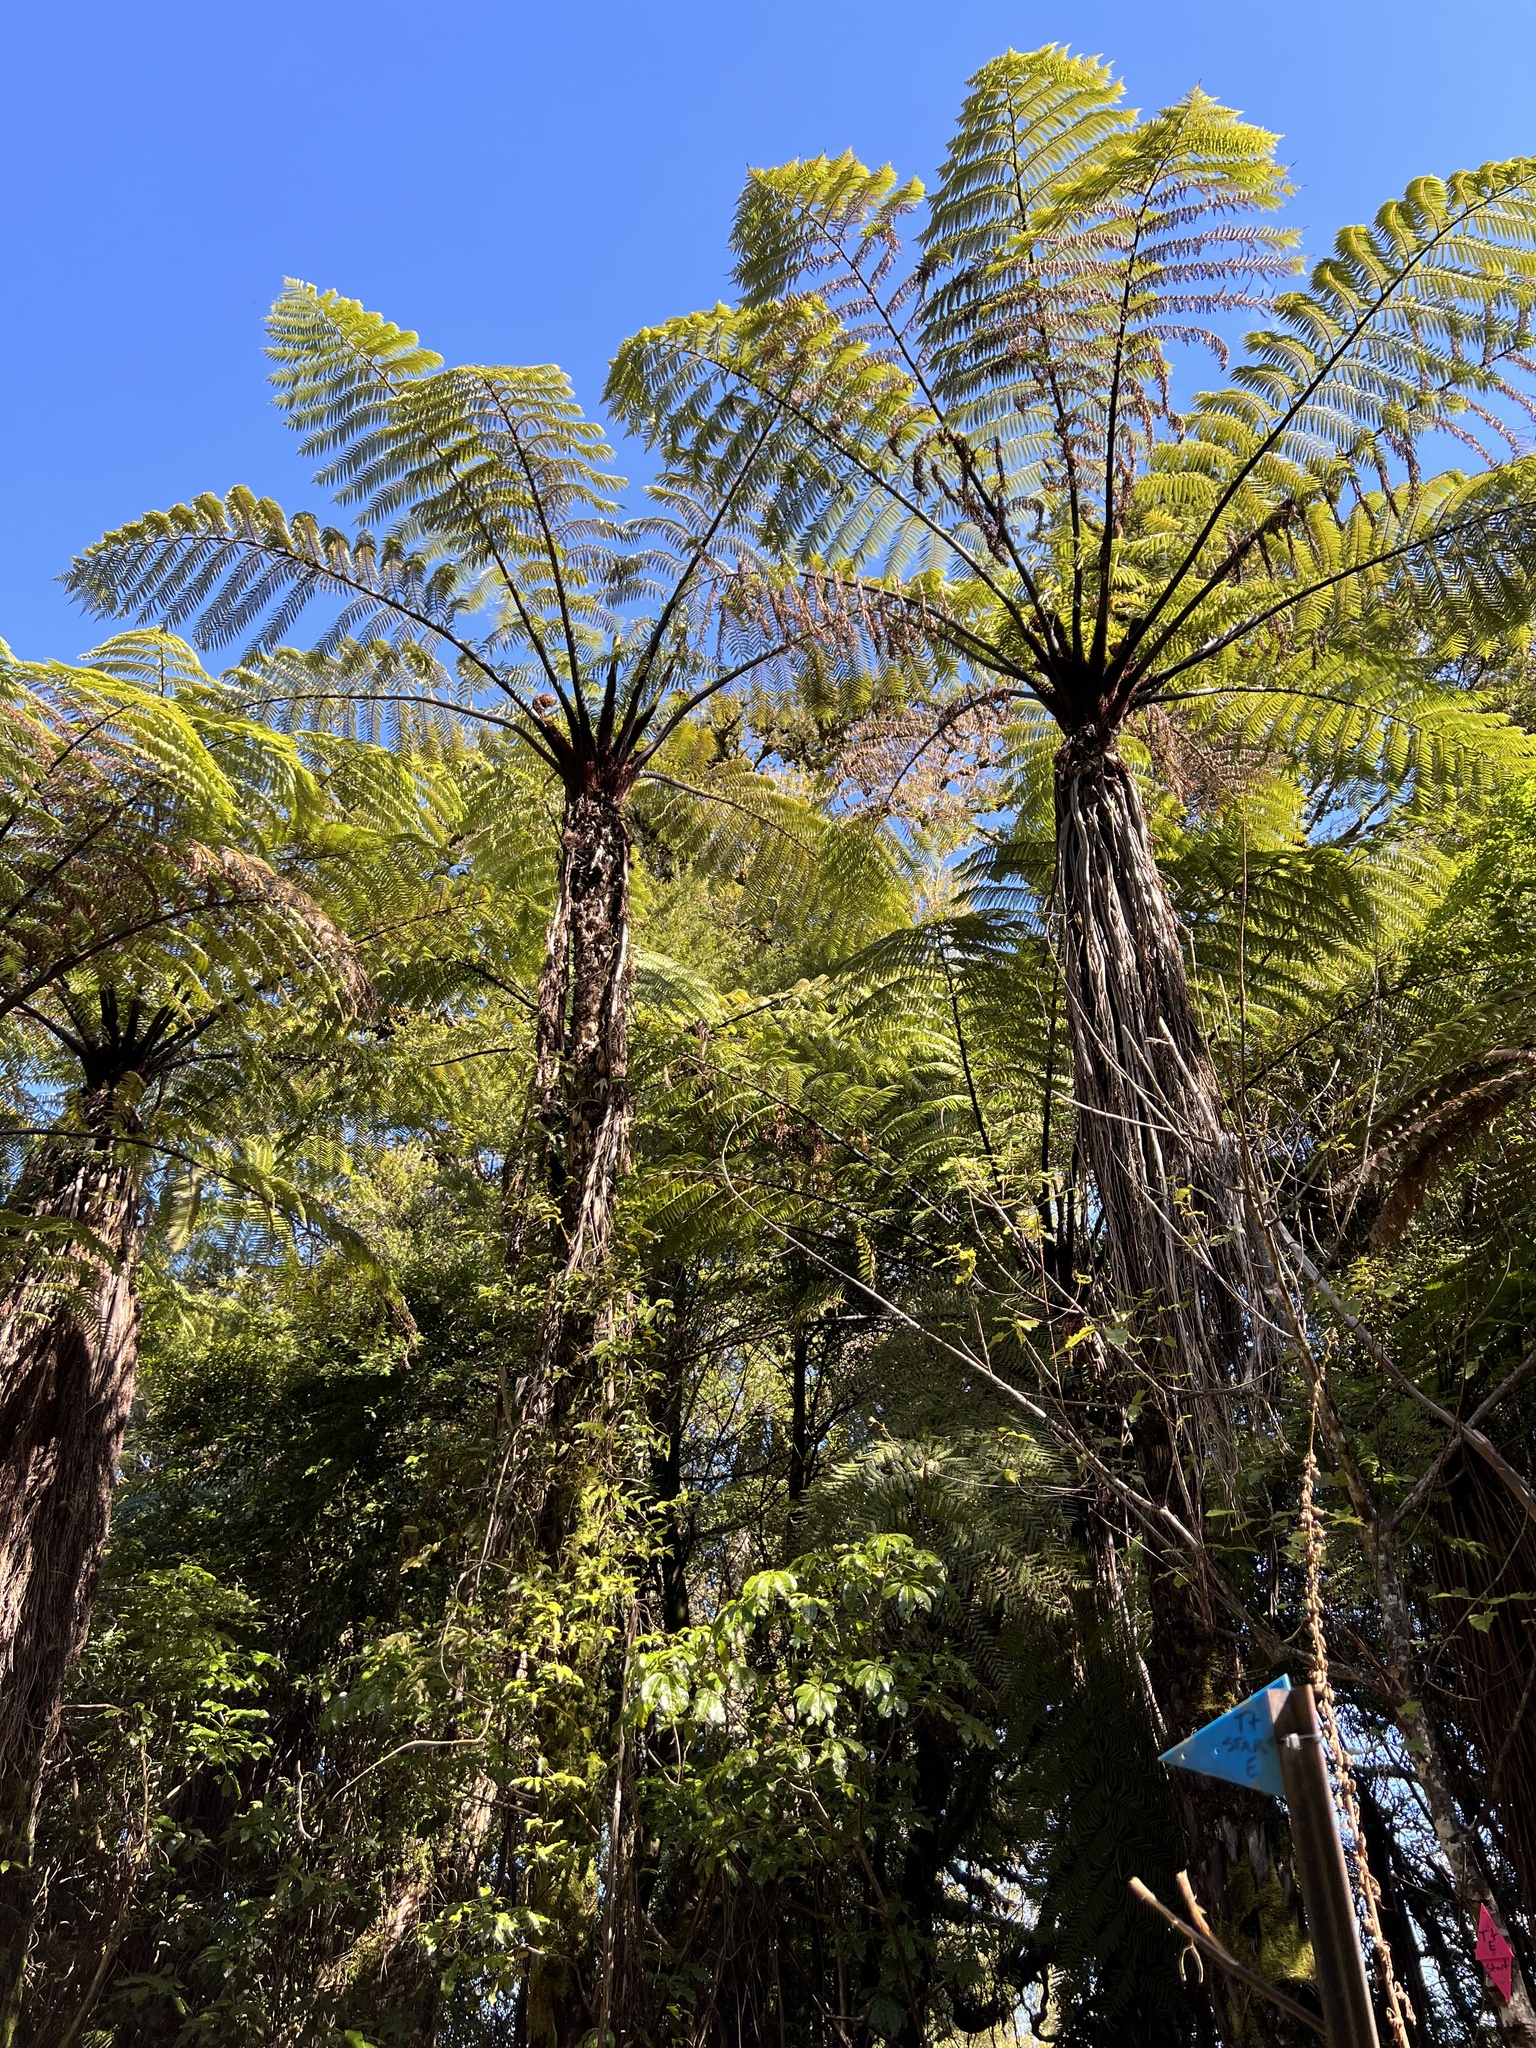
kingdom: Plantae
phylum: Tracheophyta
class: Polypodiopsida
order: Cyatheales
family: Cyatheaceae
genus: Sphaeropteris
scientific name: Sphaeropteris medullaris
